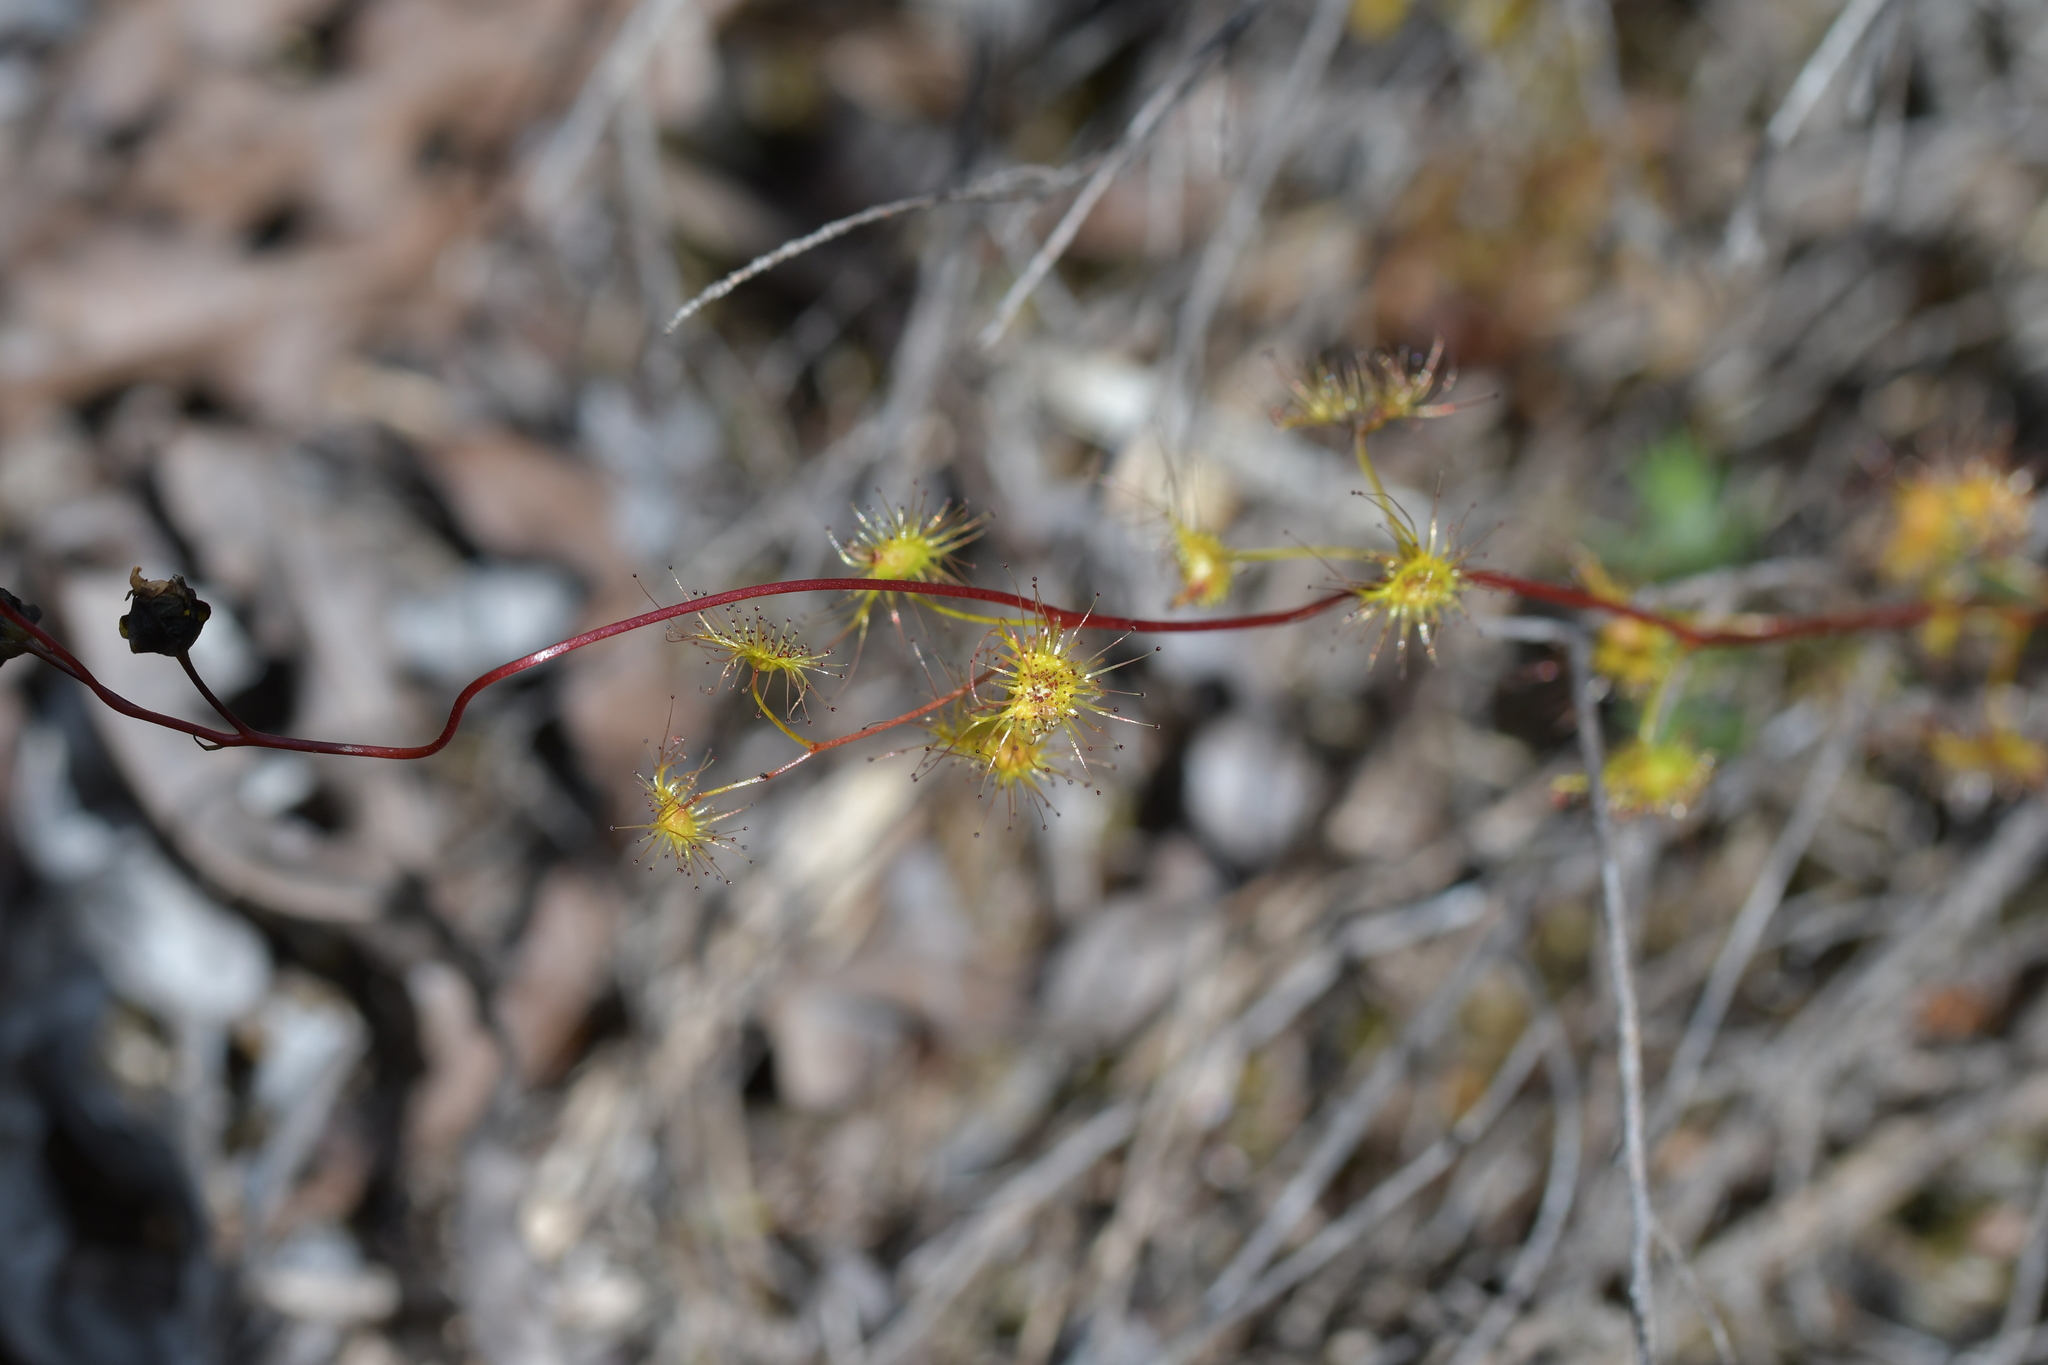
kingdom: Plantae
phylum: Tracheophyta
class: Magnoliopsida
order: Caryophyllales
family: Droseraceae
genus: Drosera
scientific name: Drosera peltata
